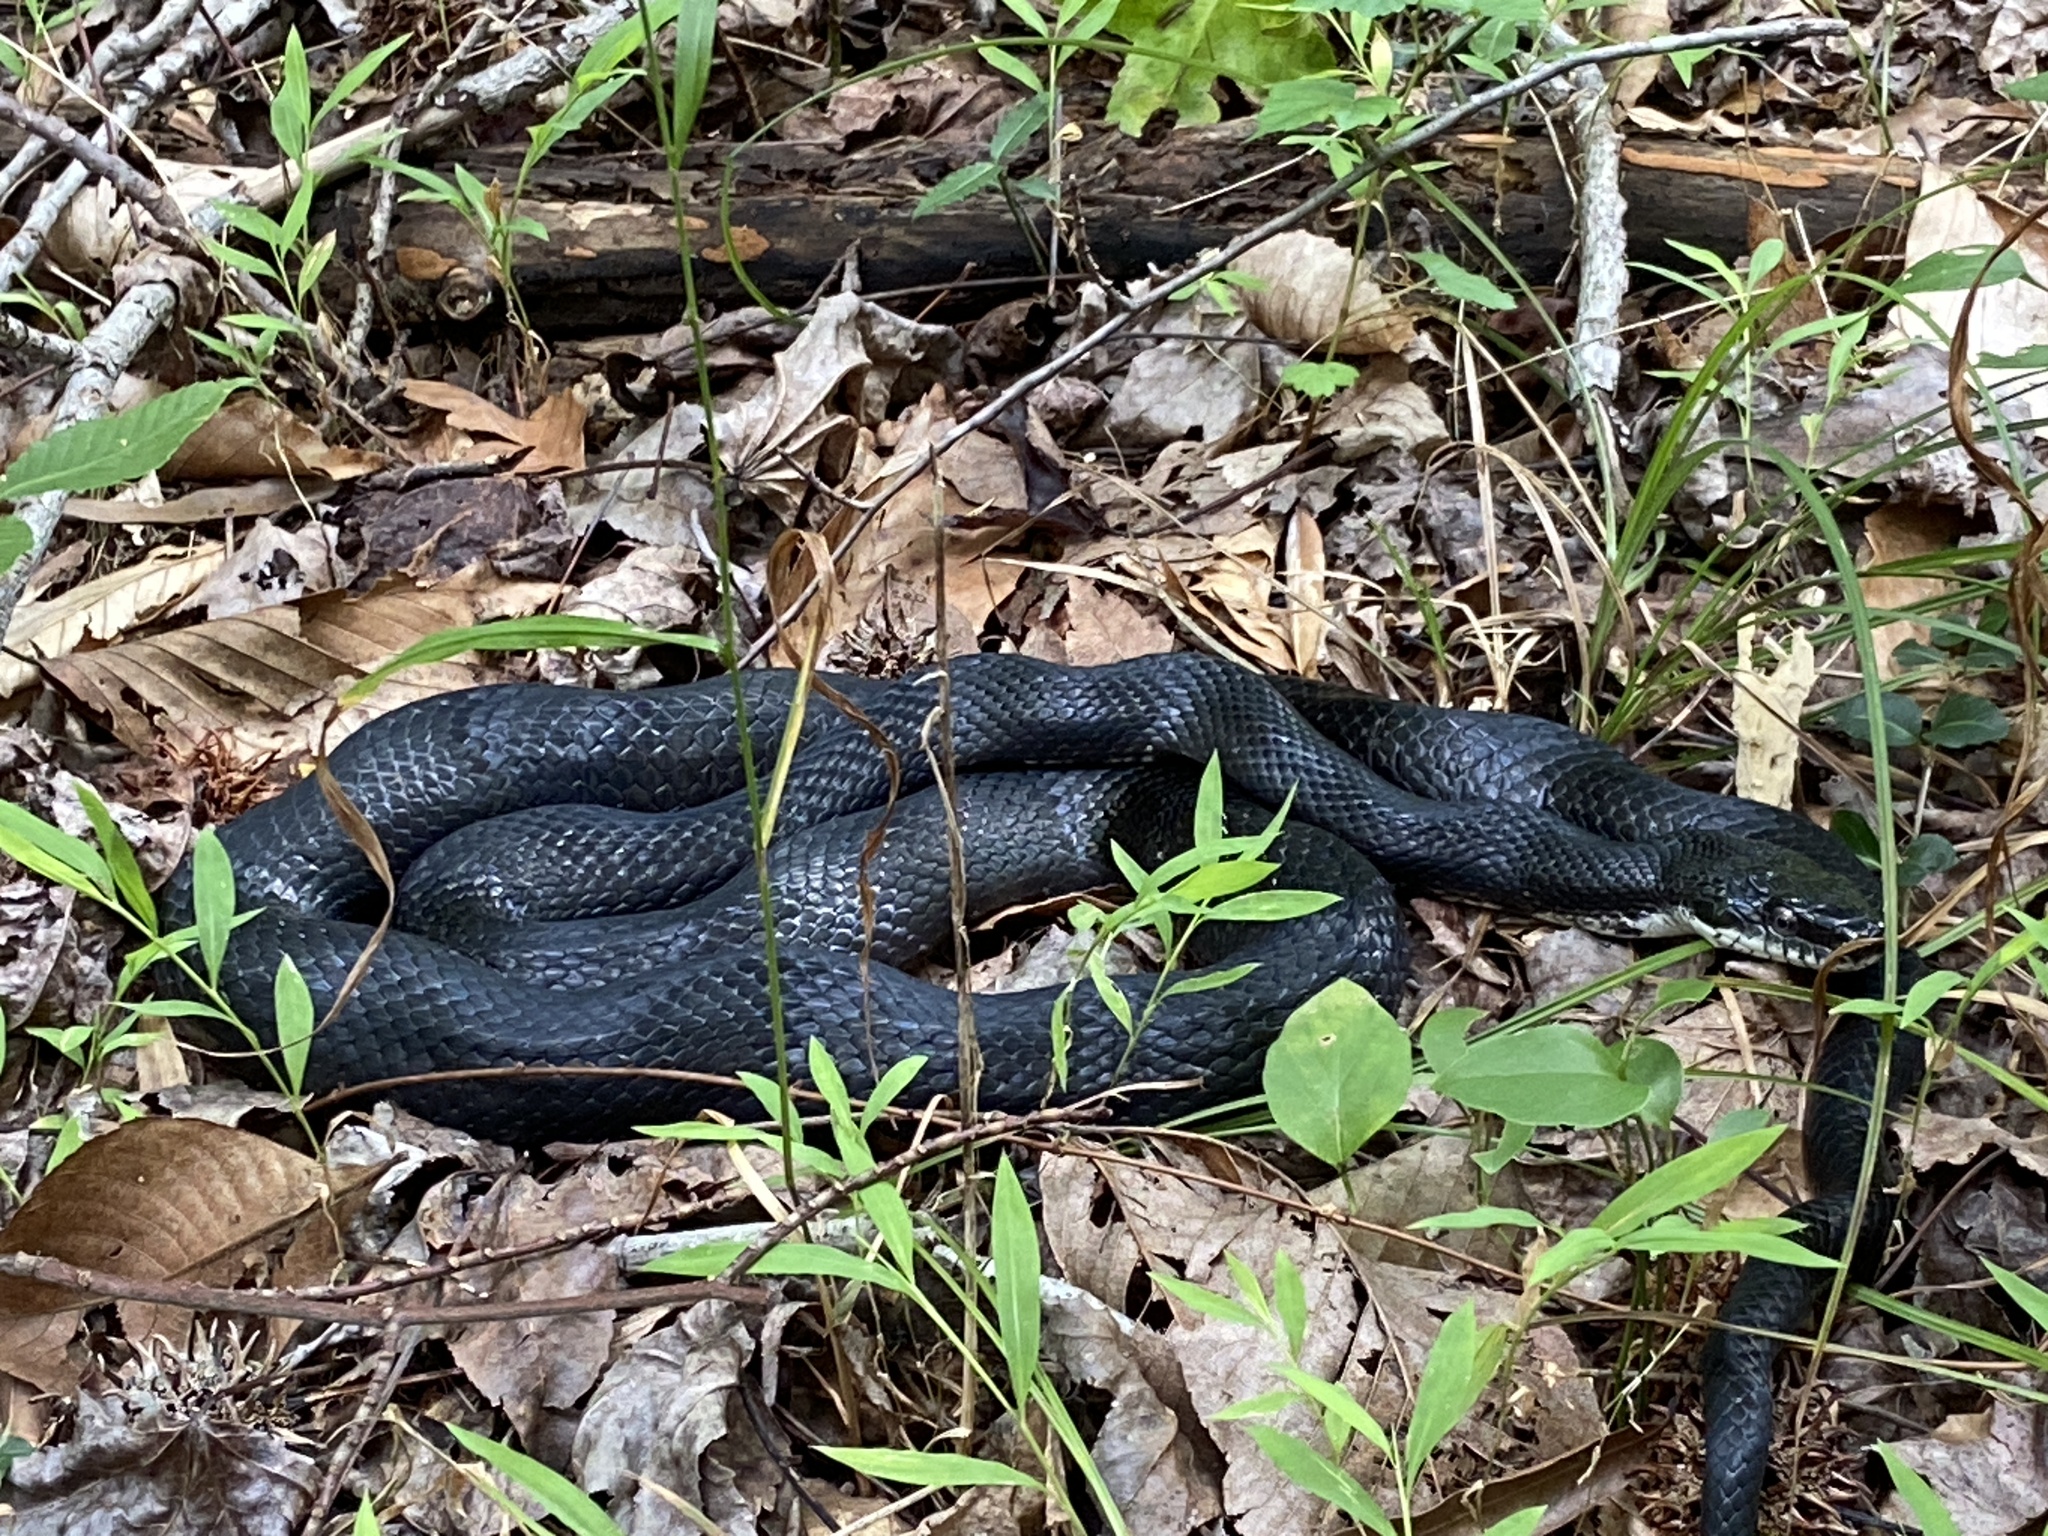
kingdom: Animalia
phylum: Chordata
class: Squamata
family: Colubridae
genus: Pantherophis
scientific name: Pantherophis
